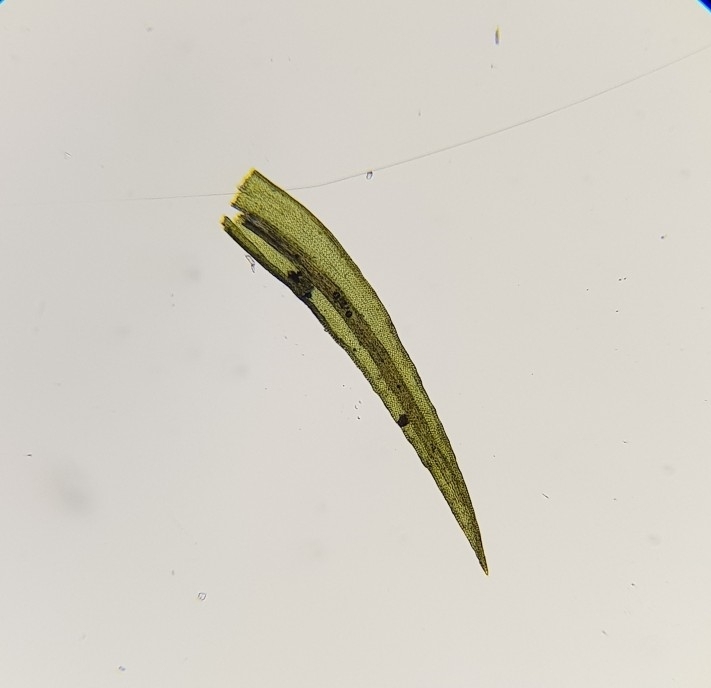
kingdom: Plantae
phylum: Bryophyta
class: Bryopsida
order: Dicranales
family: Rhabdoweisiaceae
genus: Dicranoweisia
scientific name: Dicranoweisia cirrata
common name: Common pincushion
